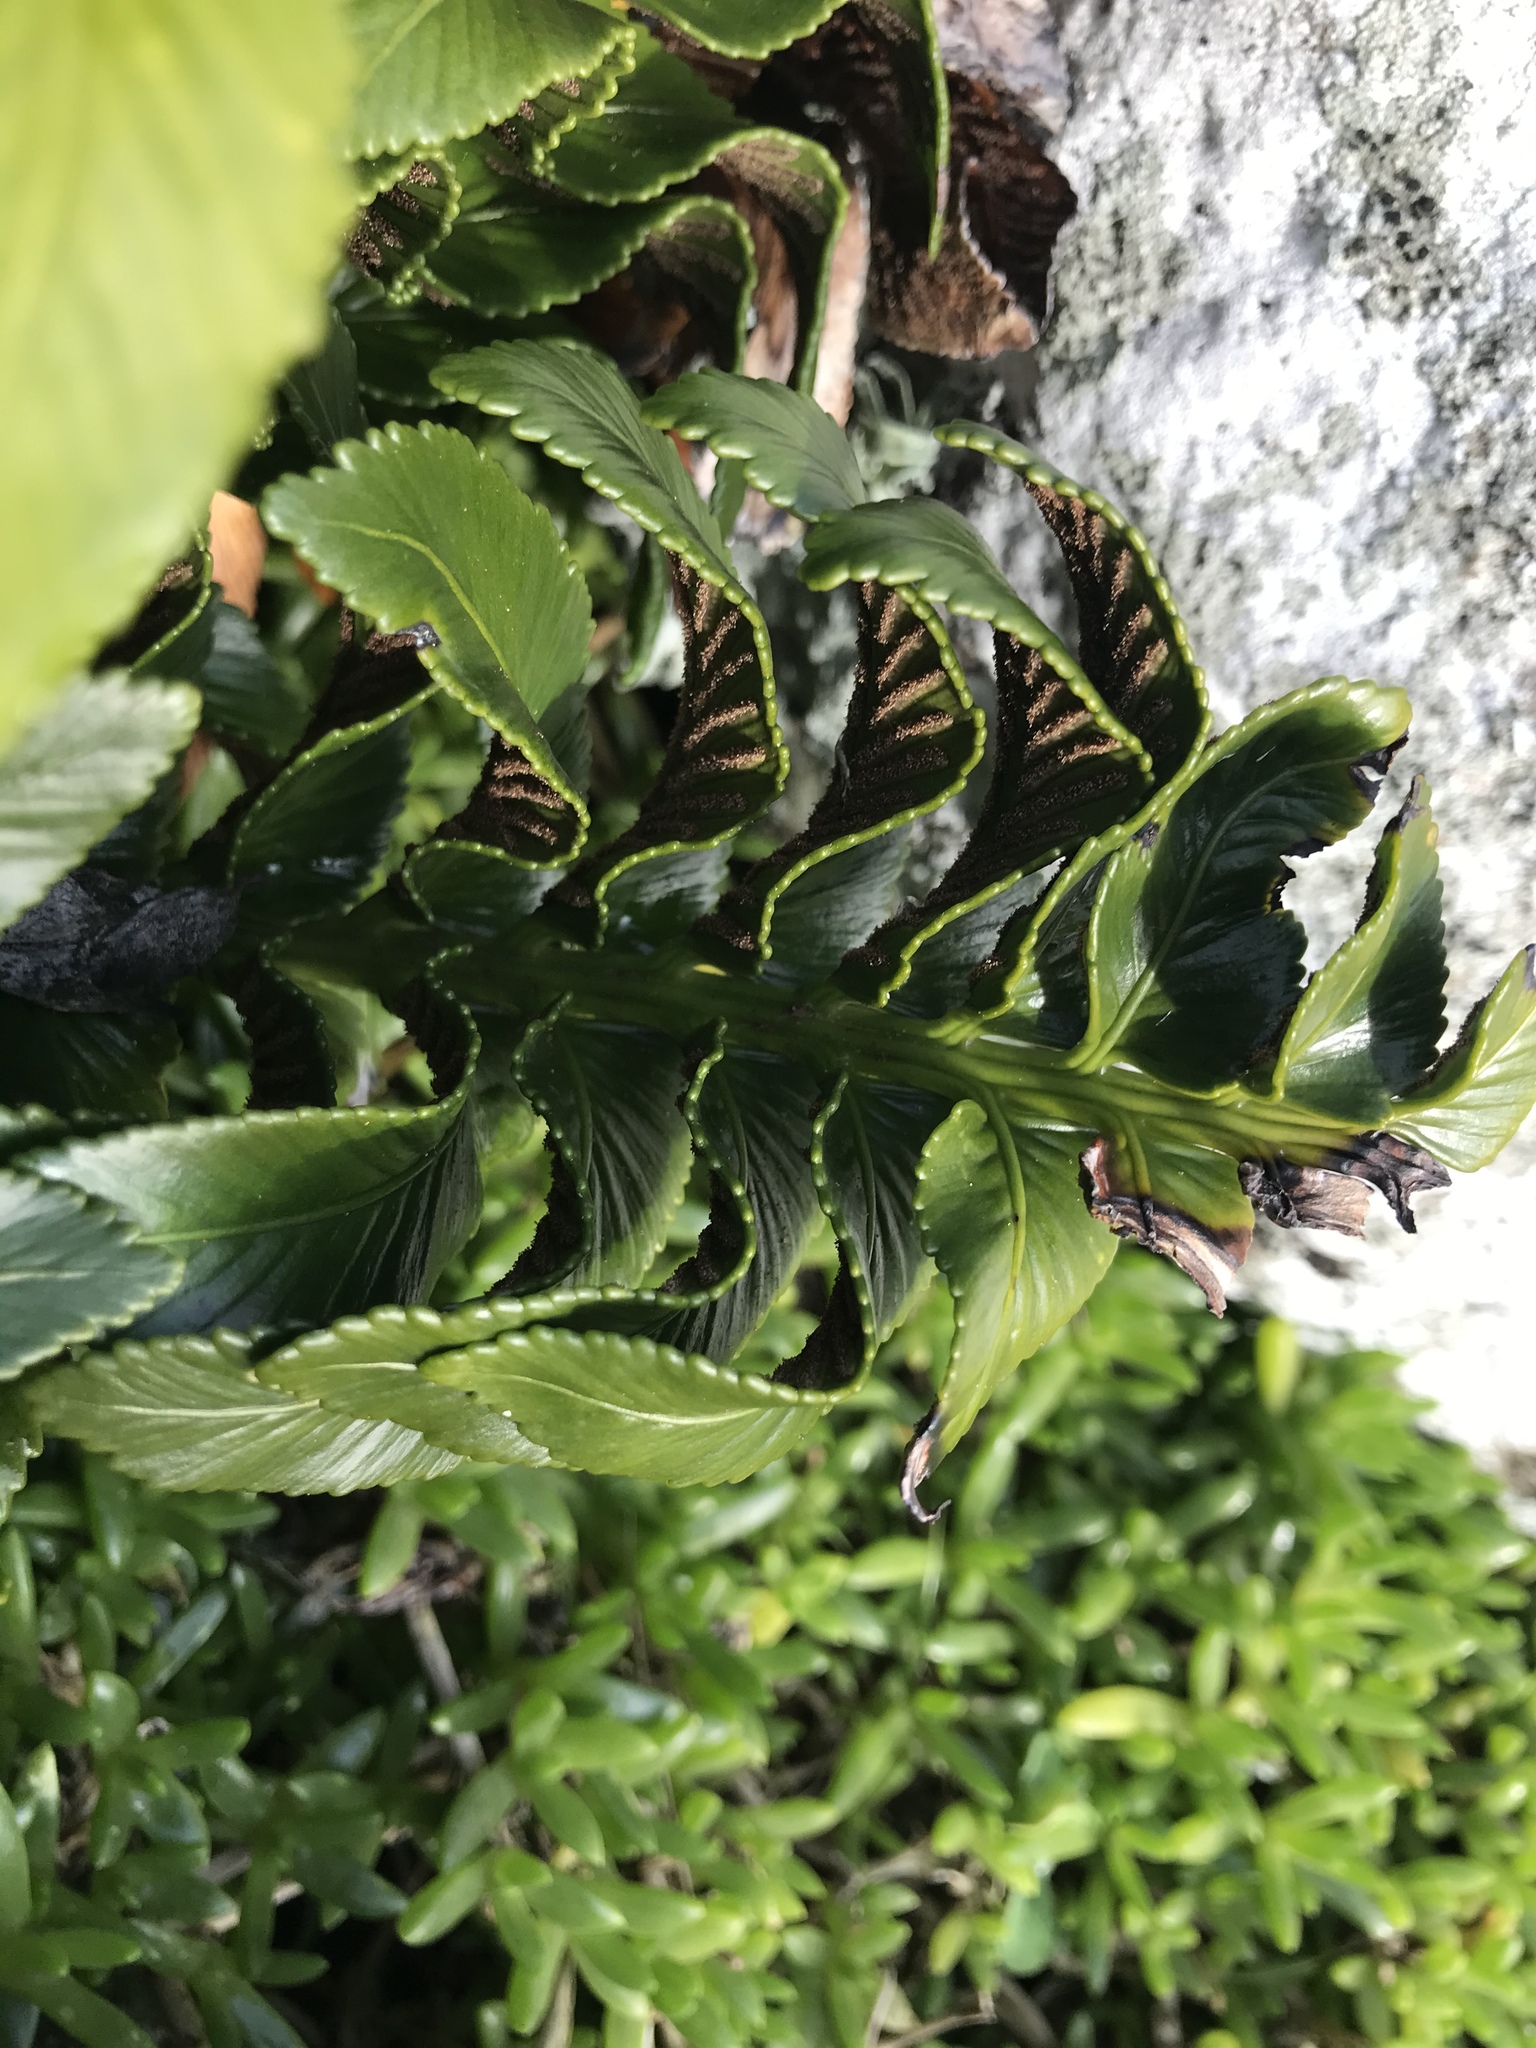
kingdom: Plantae
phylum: Tracheophyta
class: Polypodiopsida
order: Polypodiales
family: Aspleniaceae
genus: Asplenium
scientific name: Asplenium obtusatum
